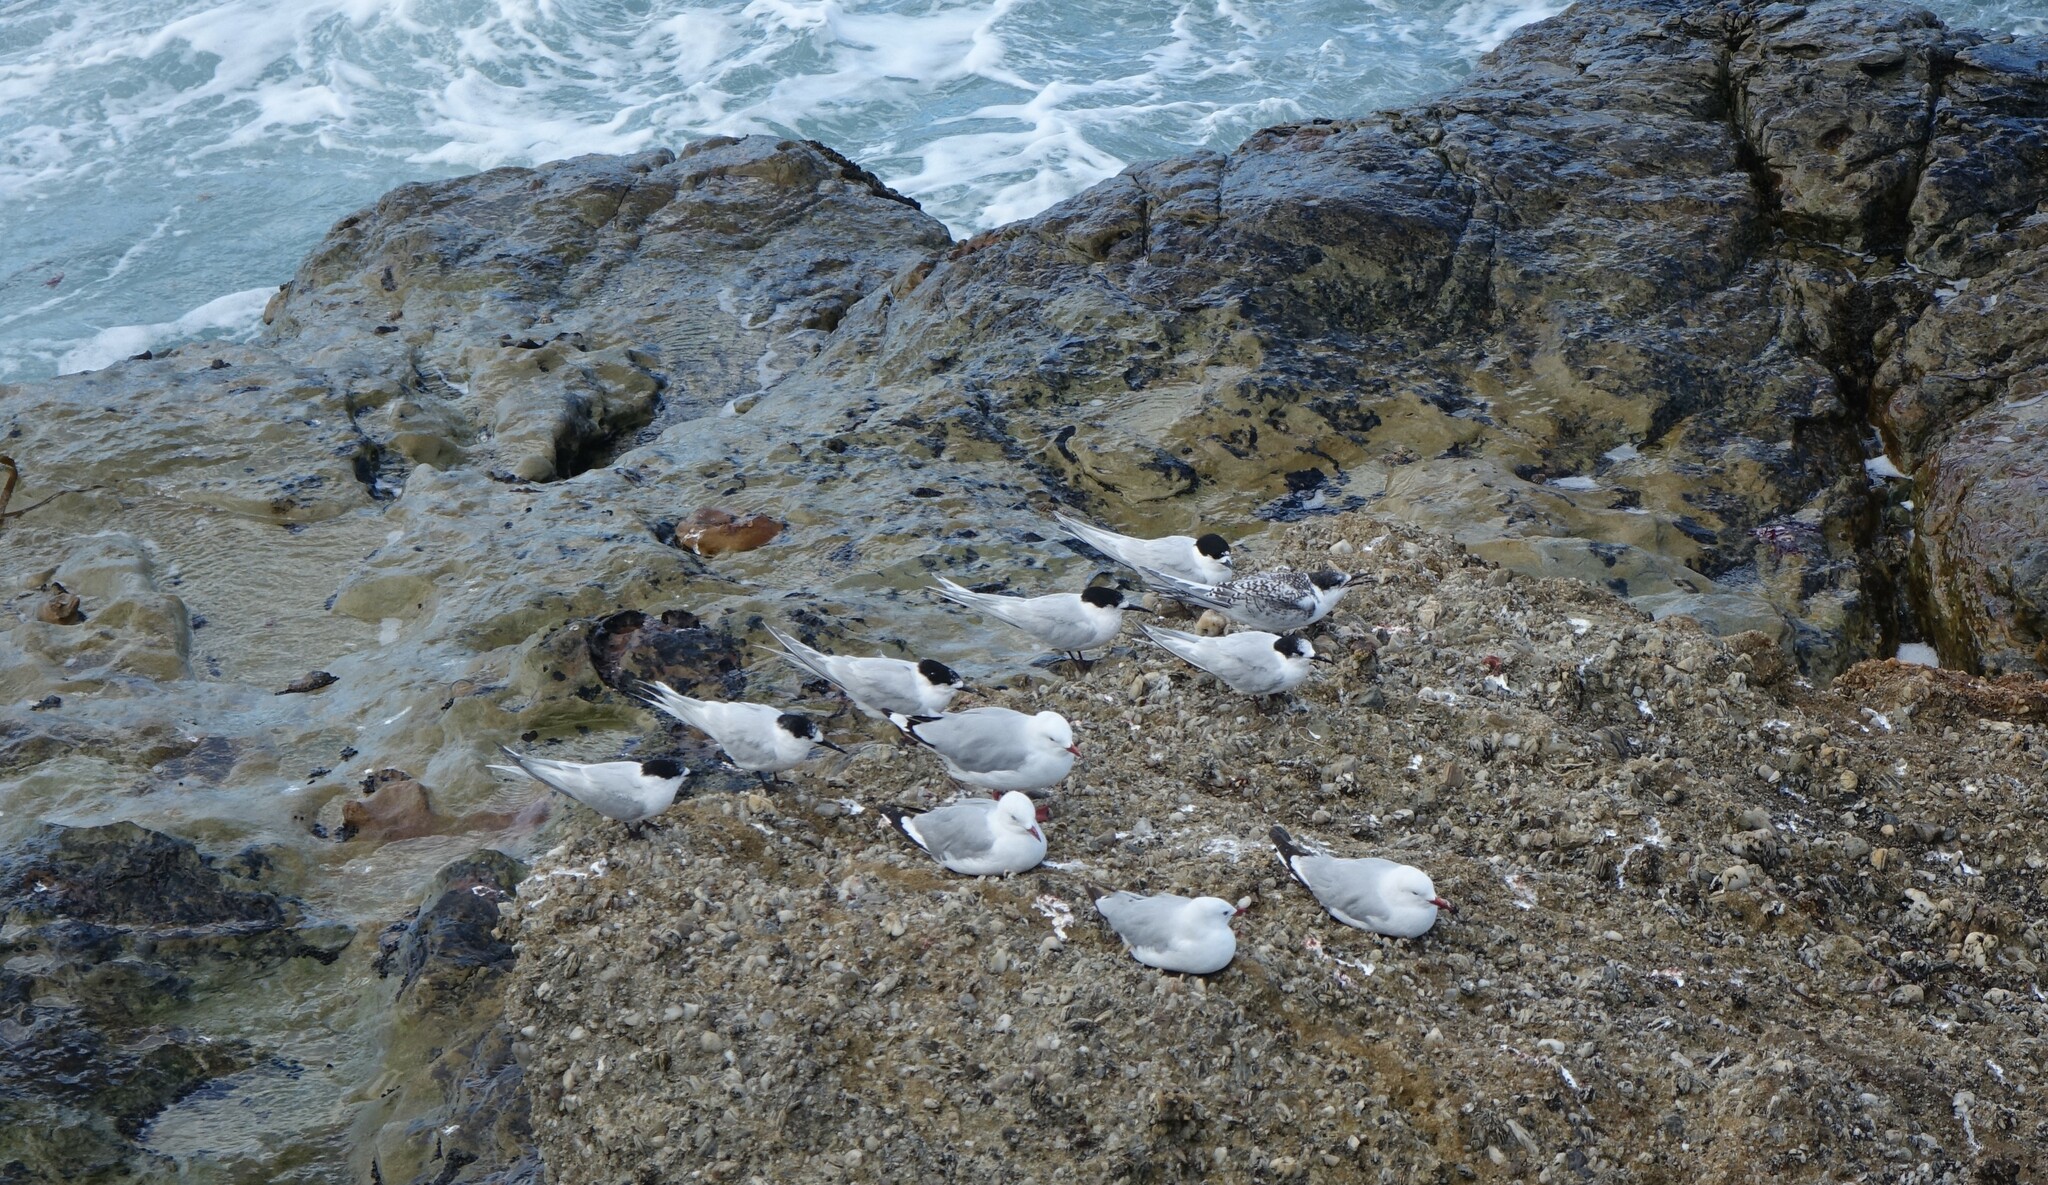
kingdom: Animalia
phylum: Chordata
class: Aves
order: Charadriiformes
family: Laridae
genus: Sterna
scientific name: Sterna striata
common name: White-fronted tern
